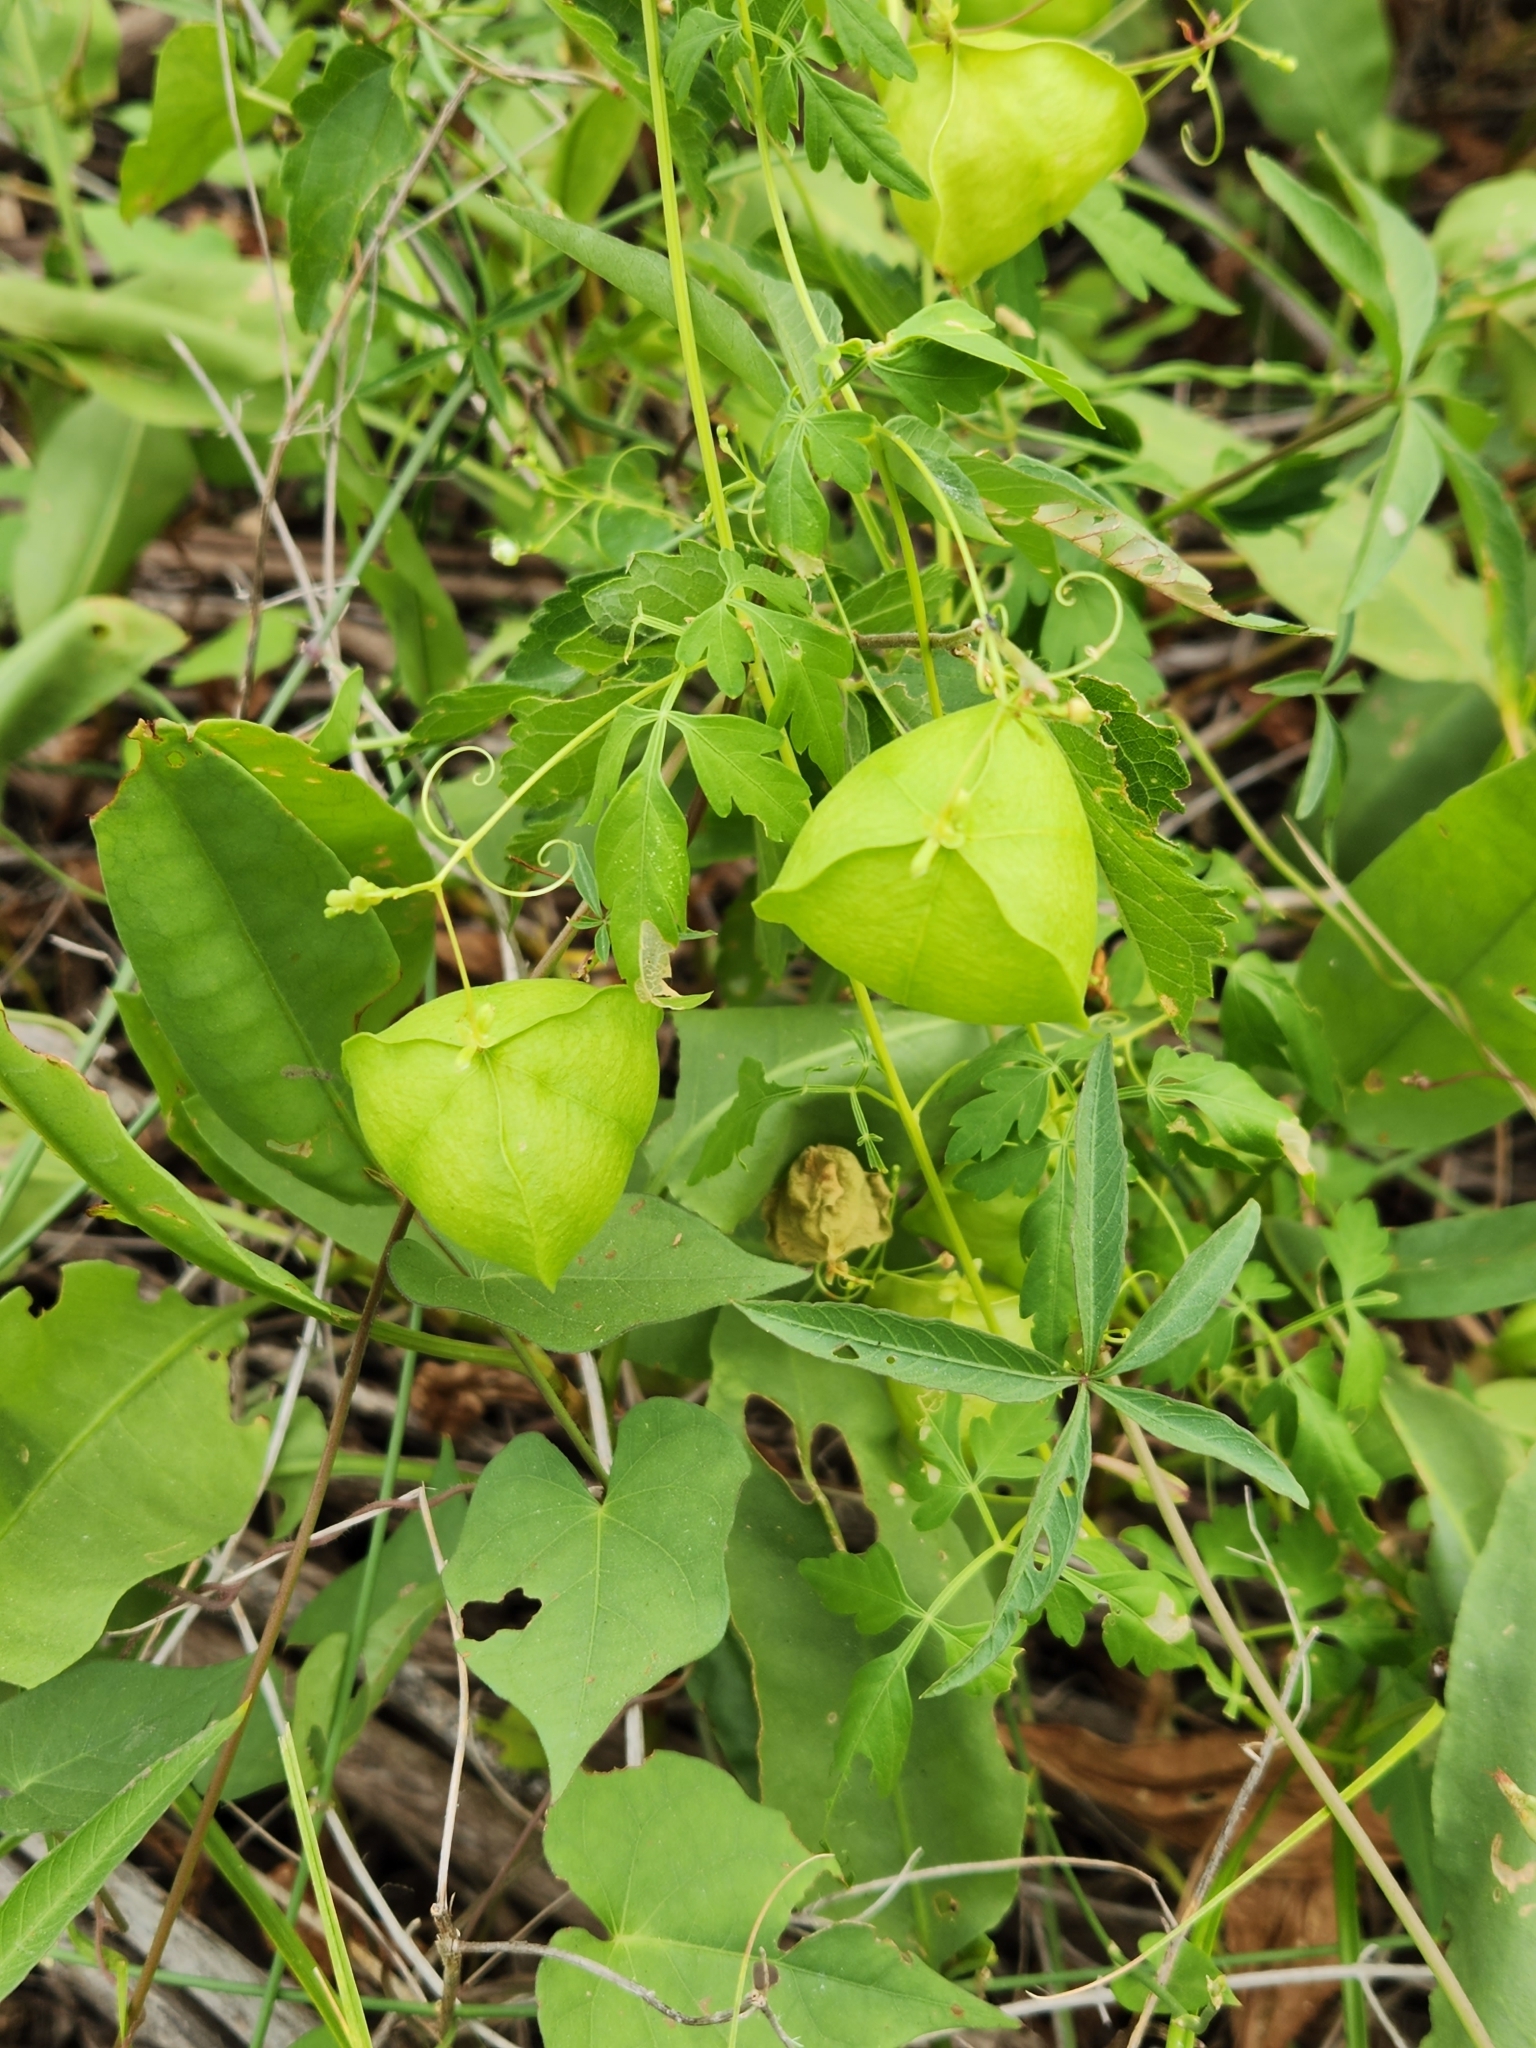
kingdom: Plantae
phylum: Tracheophyta
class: Magnoliopsida
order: Sapindales
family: Sapindaceae
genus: Cardiospermum
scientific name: Cardiospermum halicacabum
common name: Balloon vine
